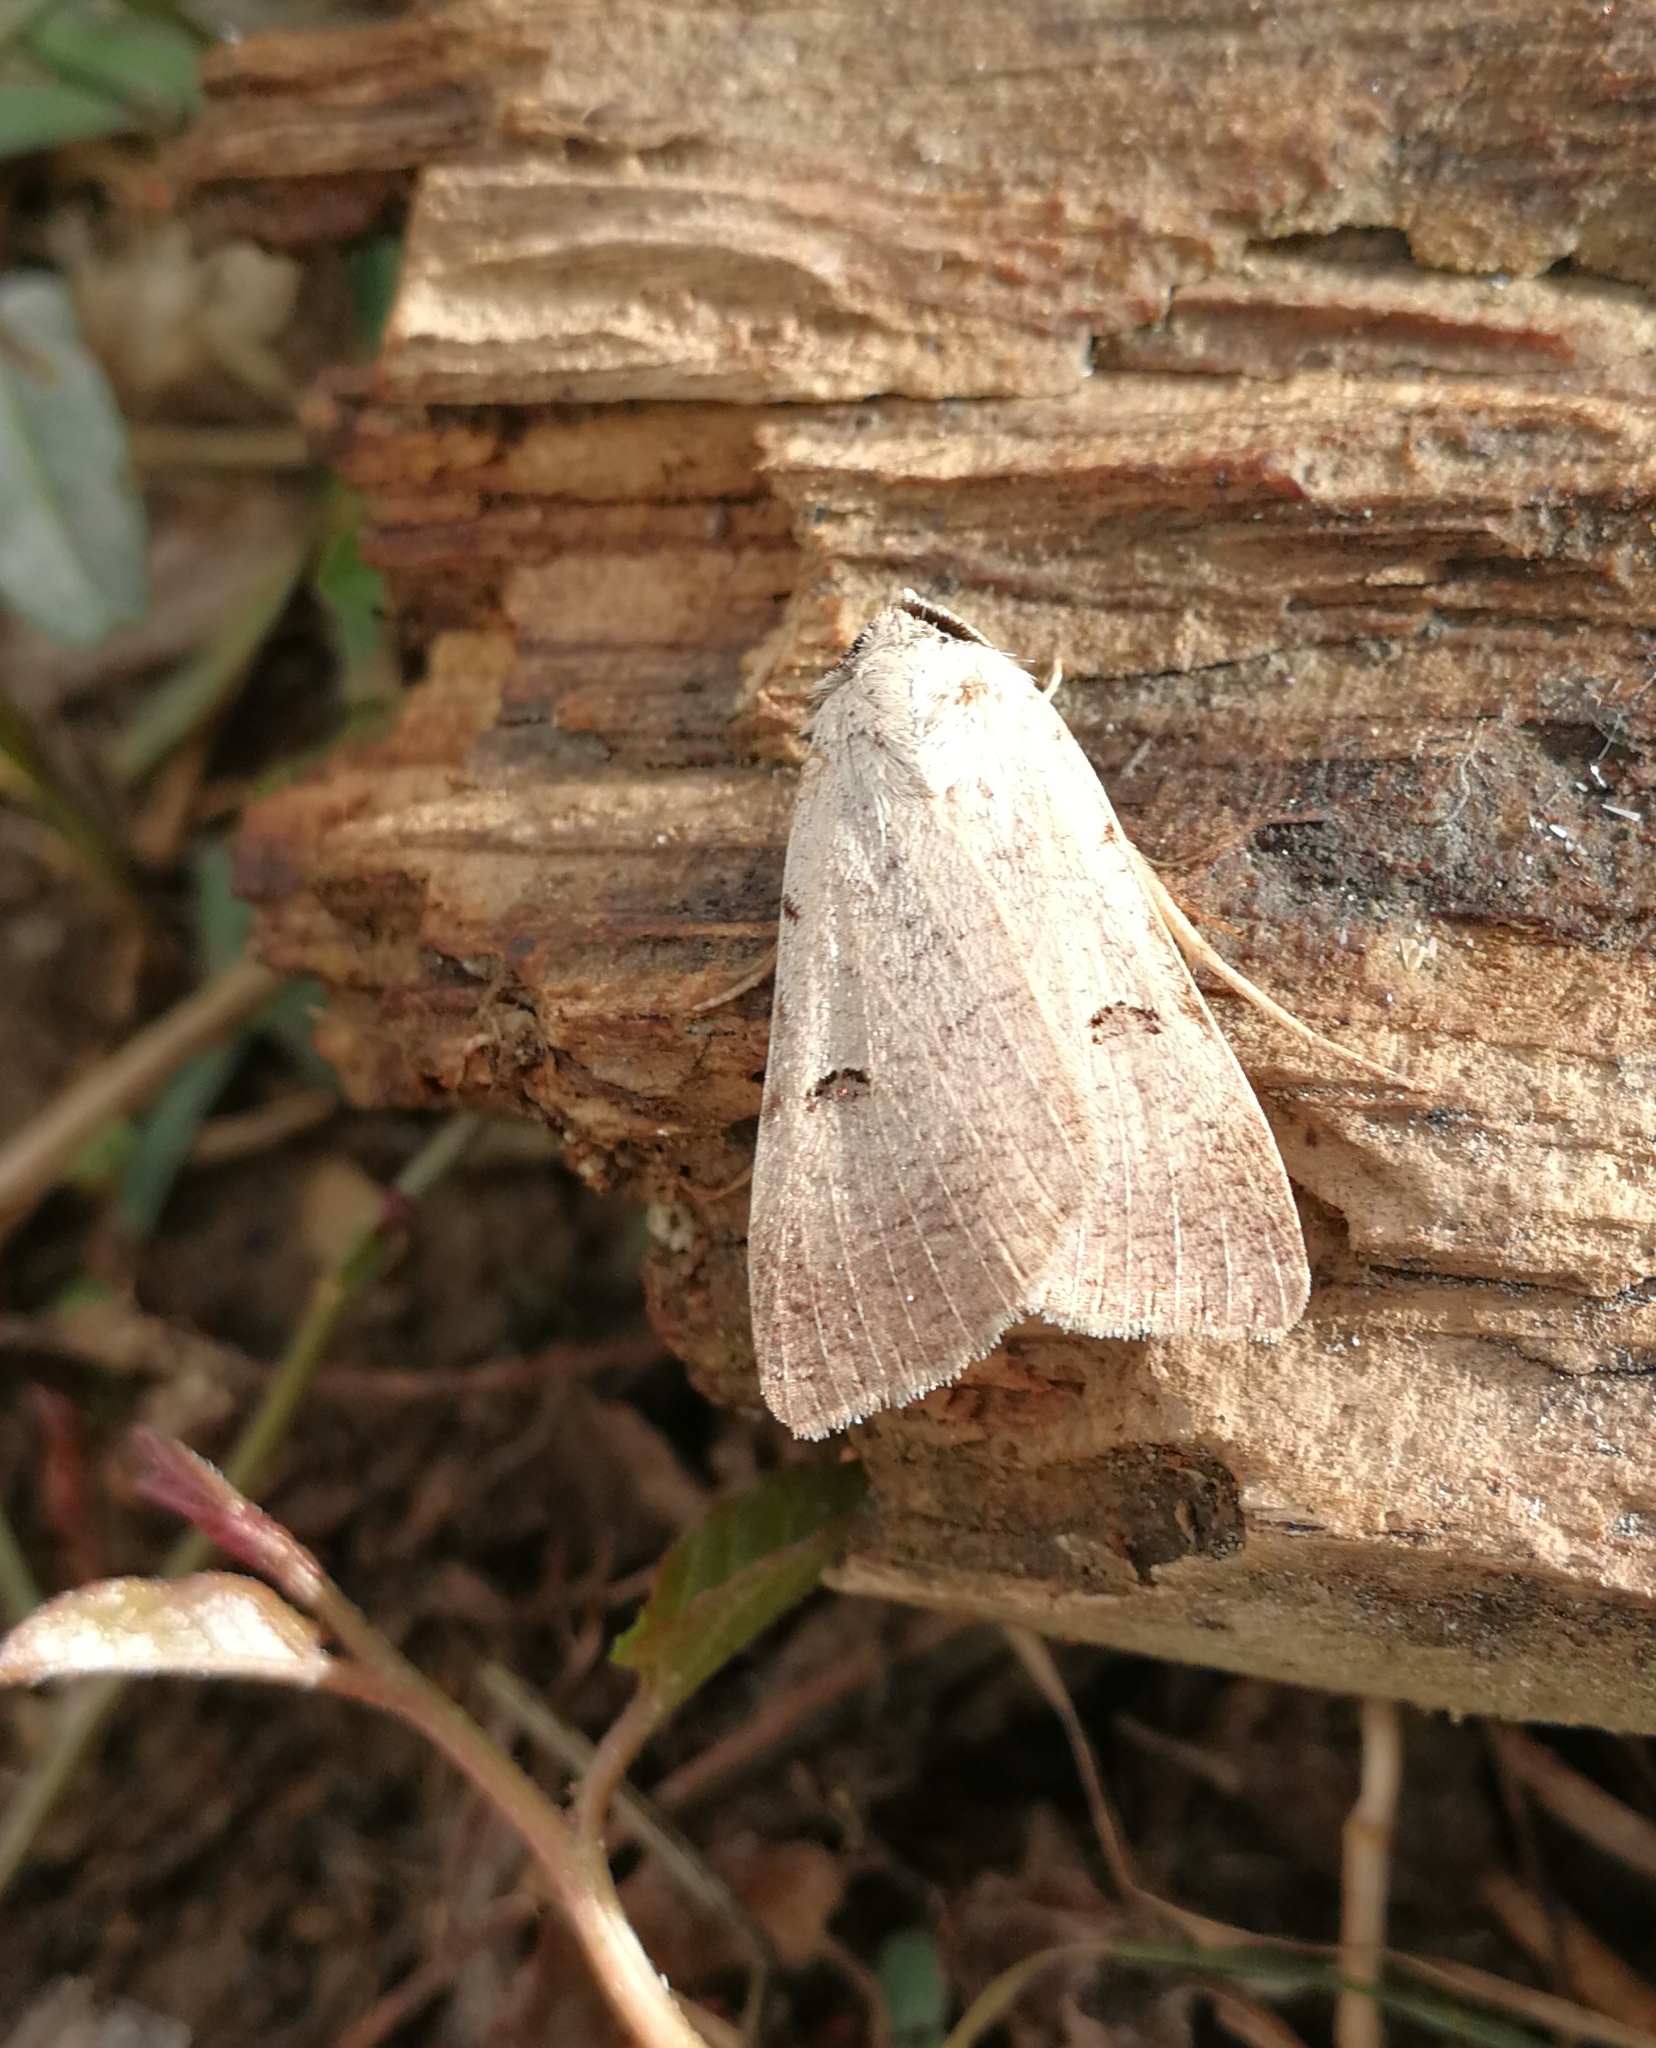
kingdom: Animalia
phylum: Arthropoda
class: Insecta
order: Lepidoptera
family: Erebidae
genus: Lygephila
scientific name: Lygephila craccae
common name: Scarce blackneck
